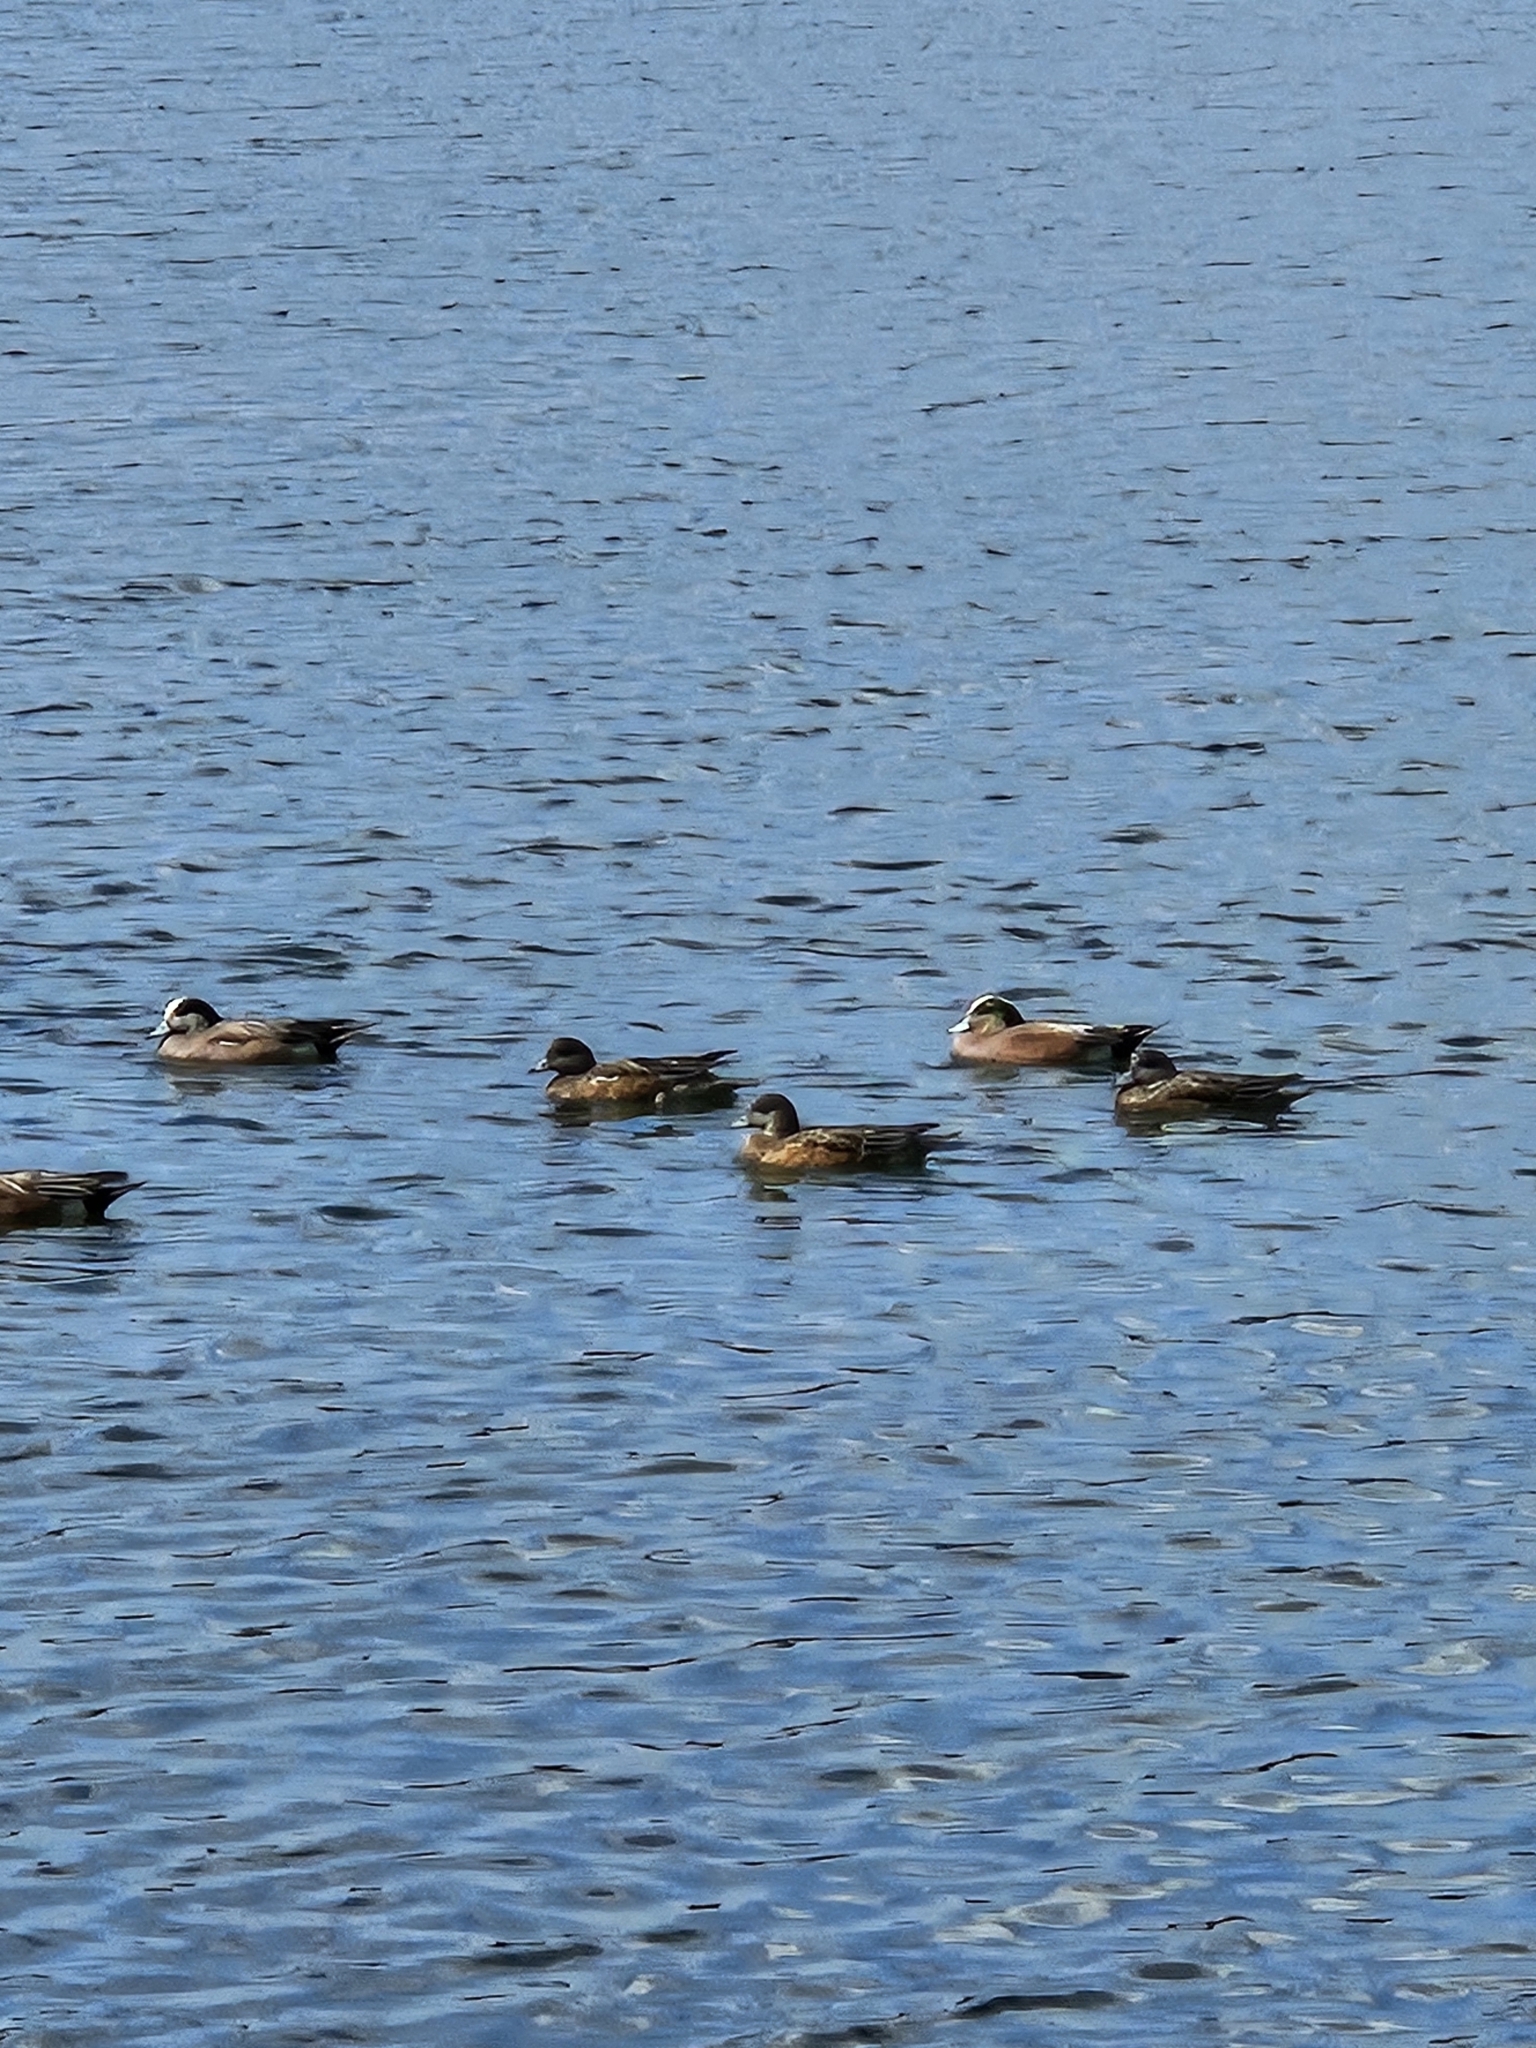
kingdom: Animalia
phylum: Chordata
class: Aves
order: Anseriformes
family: Anatidae
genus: Mareca
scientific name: Mareca americana
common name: American wigeon
